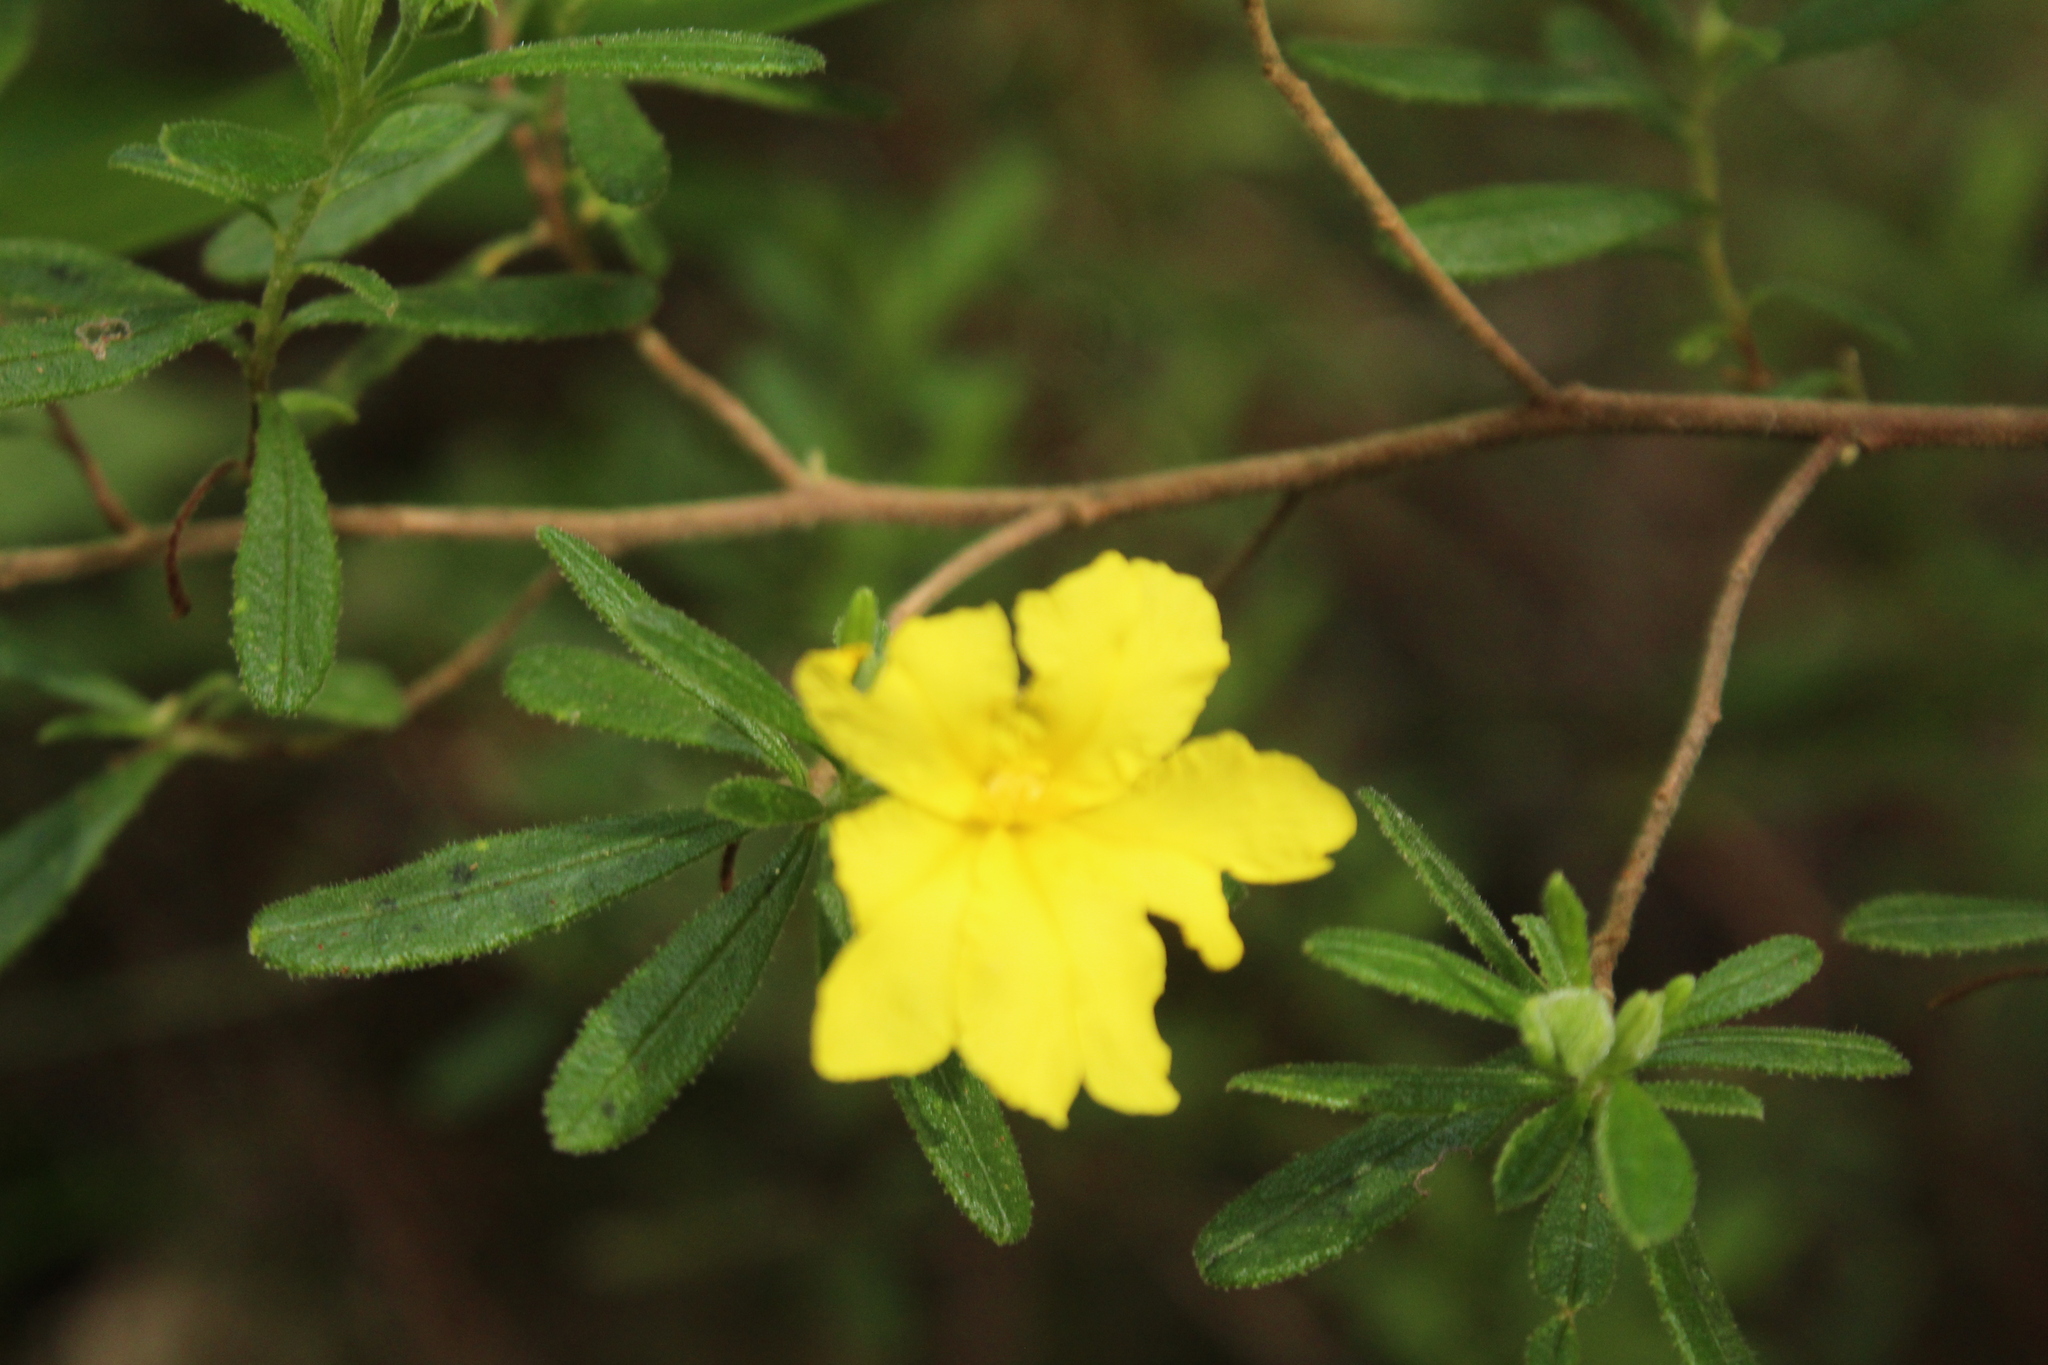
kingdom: Plantae
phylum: Tracheophyta
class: Magnoliopsida
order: Dilleniales
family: Dilleniaceae
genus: Hibbertia
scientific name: Hibbertia furfuracea
